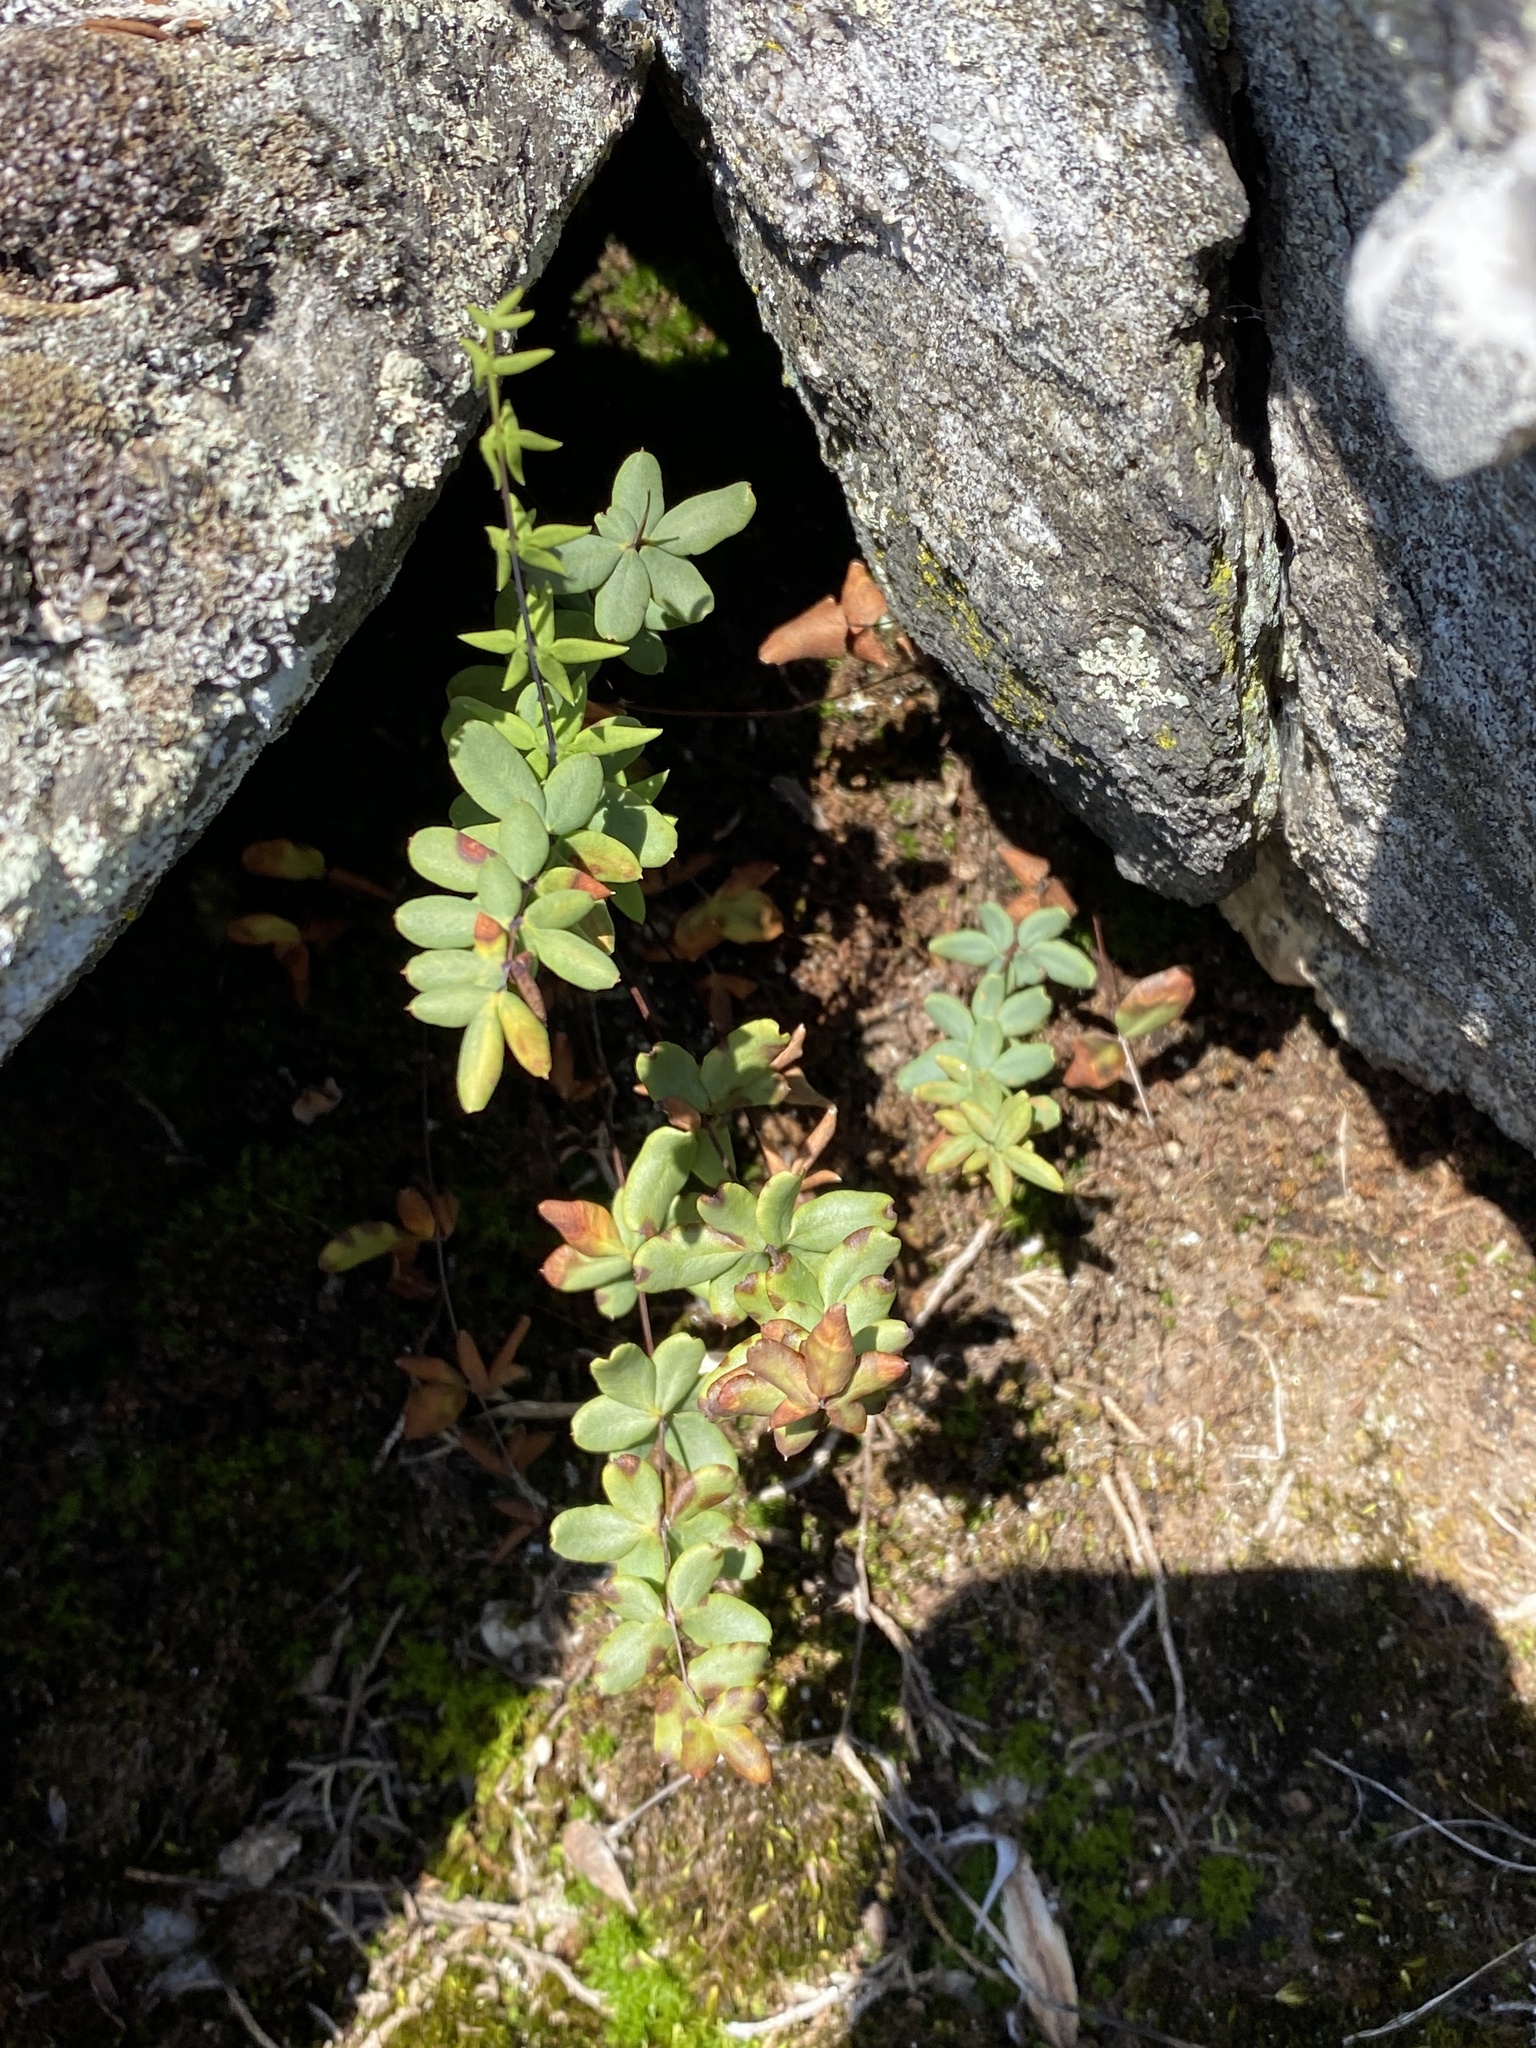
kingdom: Plantae
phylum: Tracheophyta
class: Polypodiopsida
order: Polypodiales
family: Pteridaceae
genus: Pellaea
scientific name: Pellaea wrightiana
